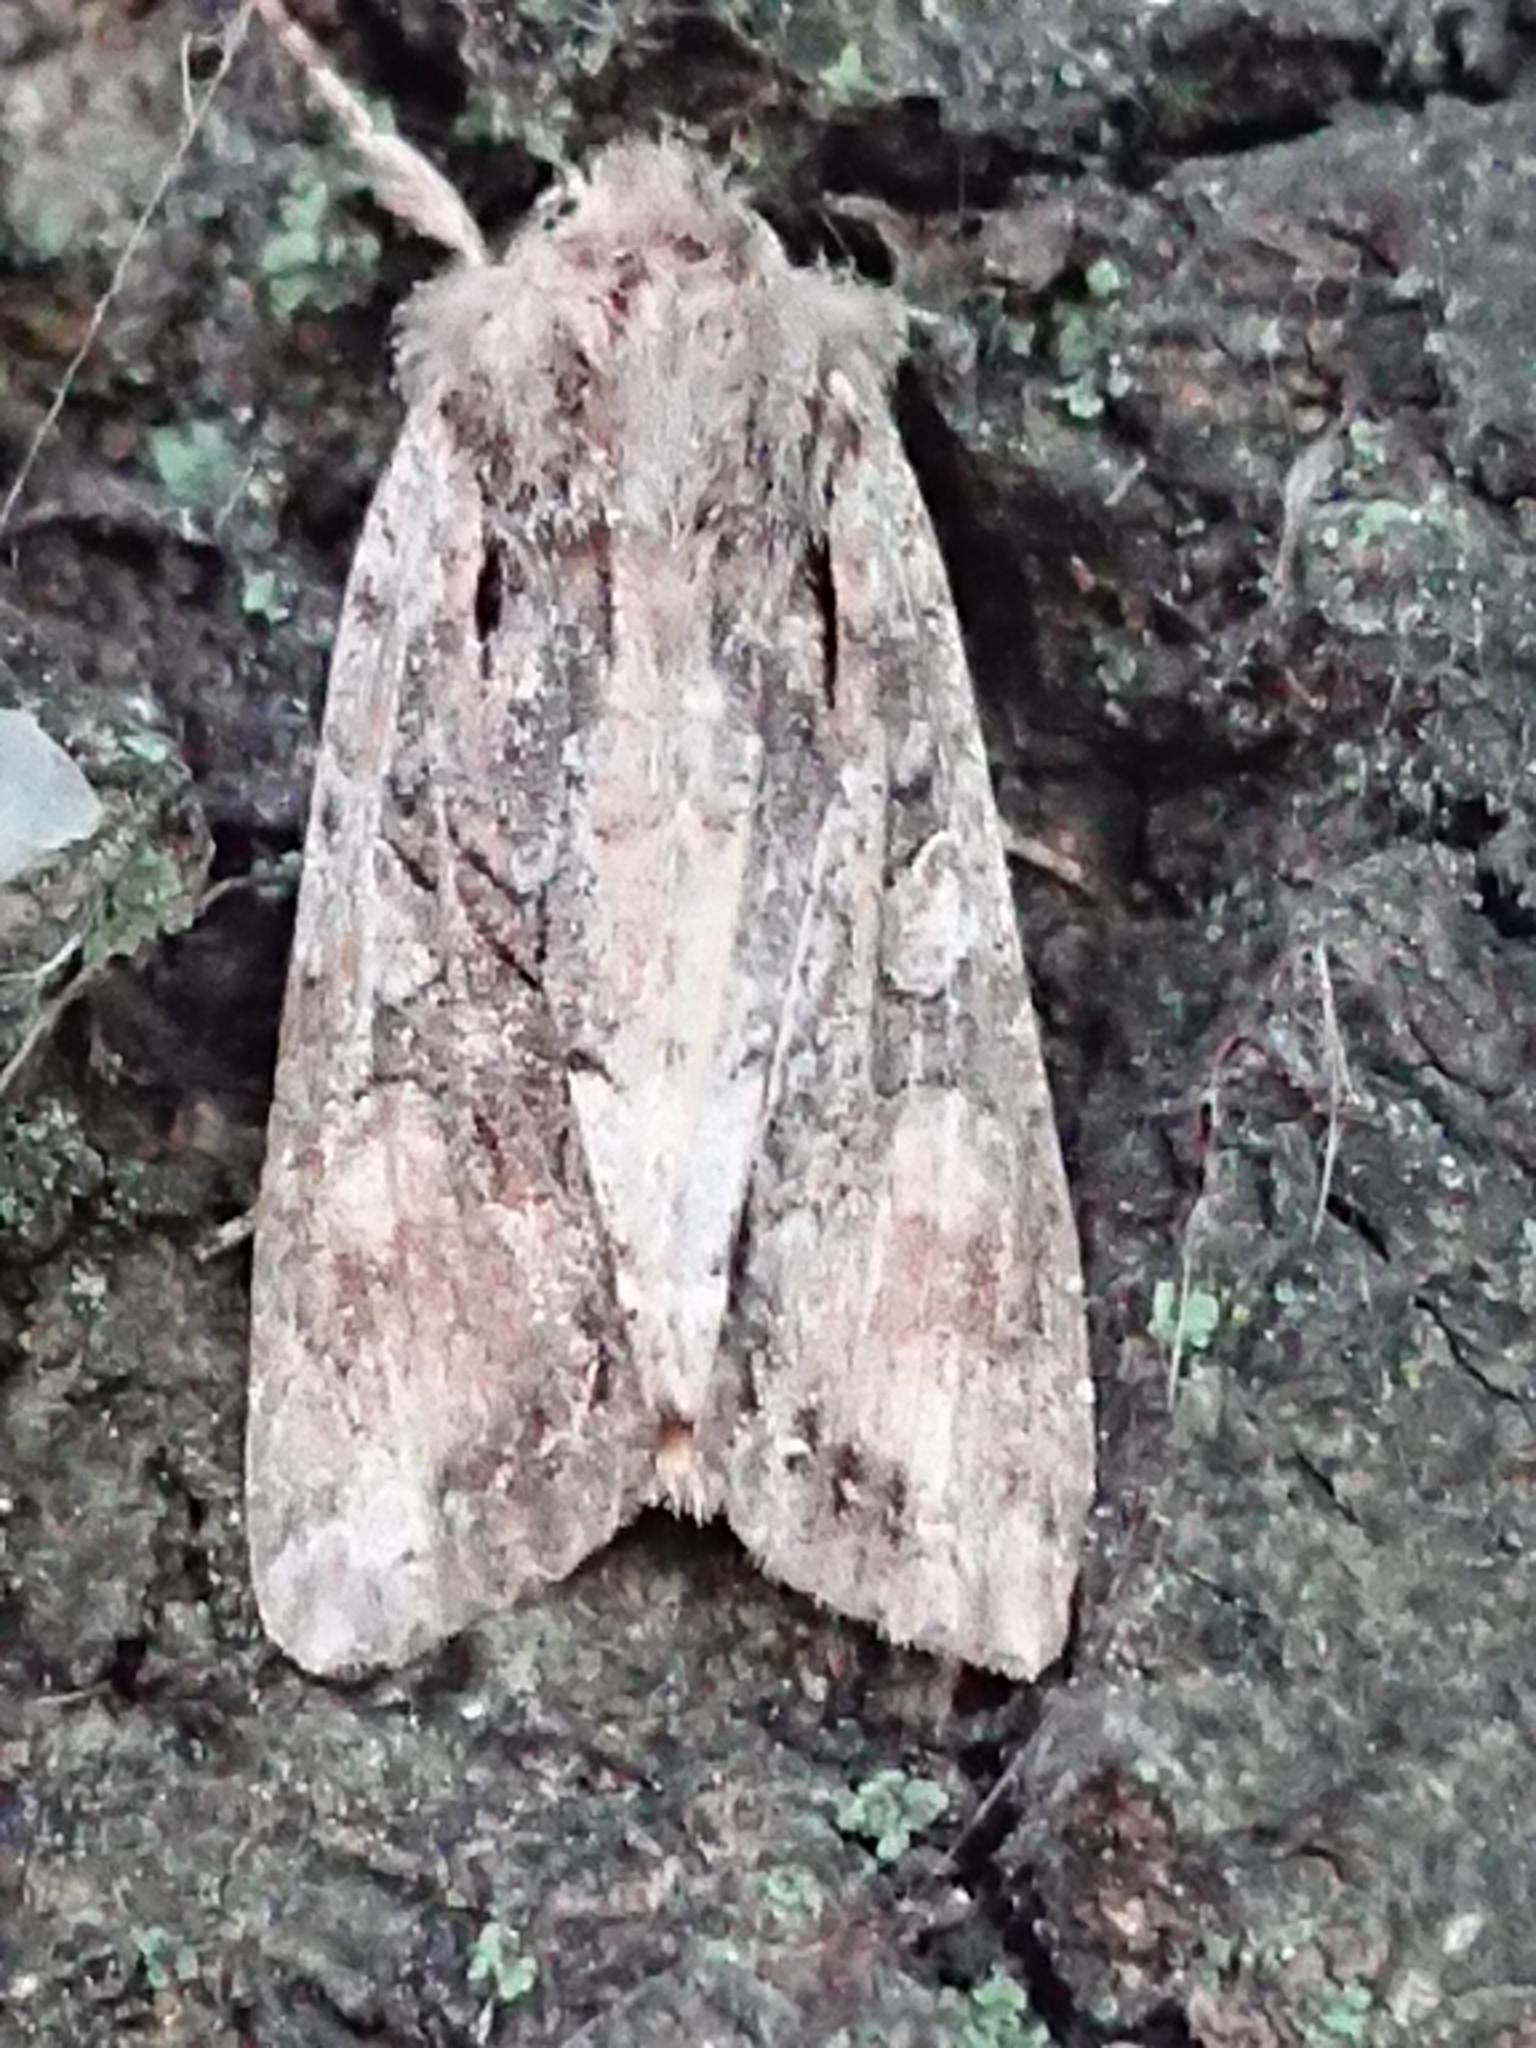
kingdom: Animalia
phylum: Arthropoda
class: Insecta
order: Lepidoptera
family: Noctuidae
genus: Ichneutica
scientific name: Ichneutica mutans
